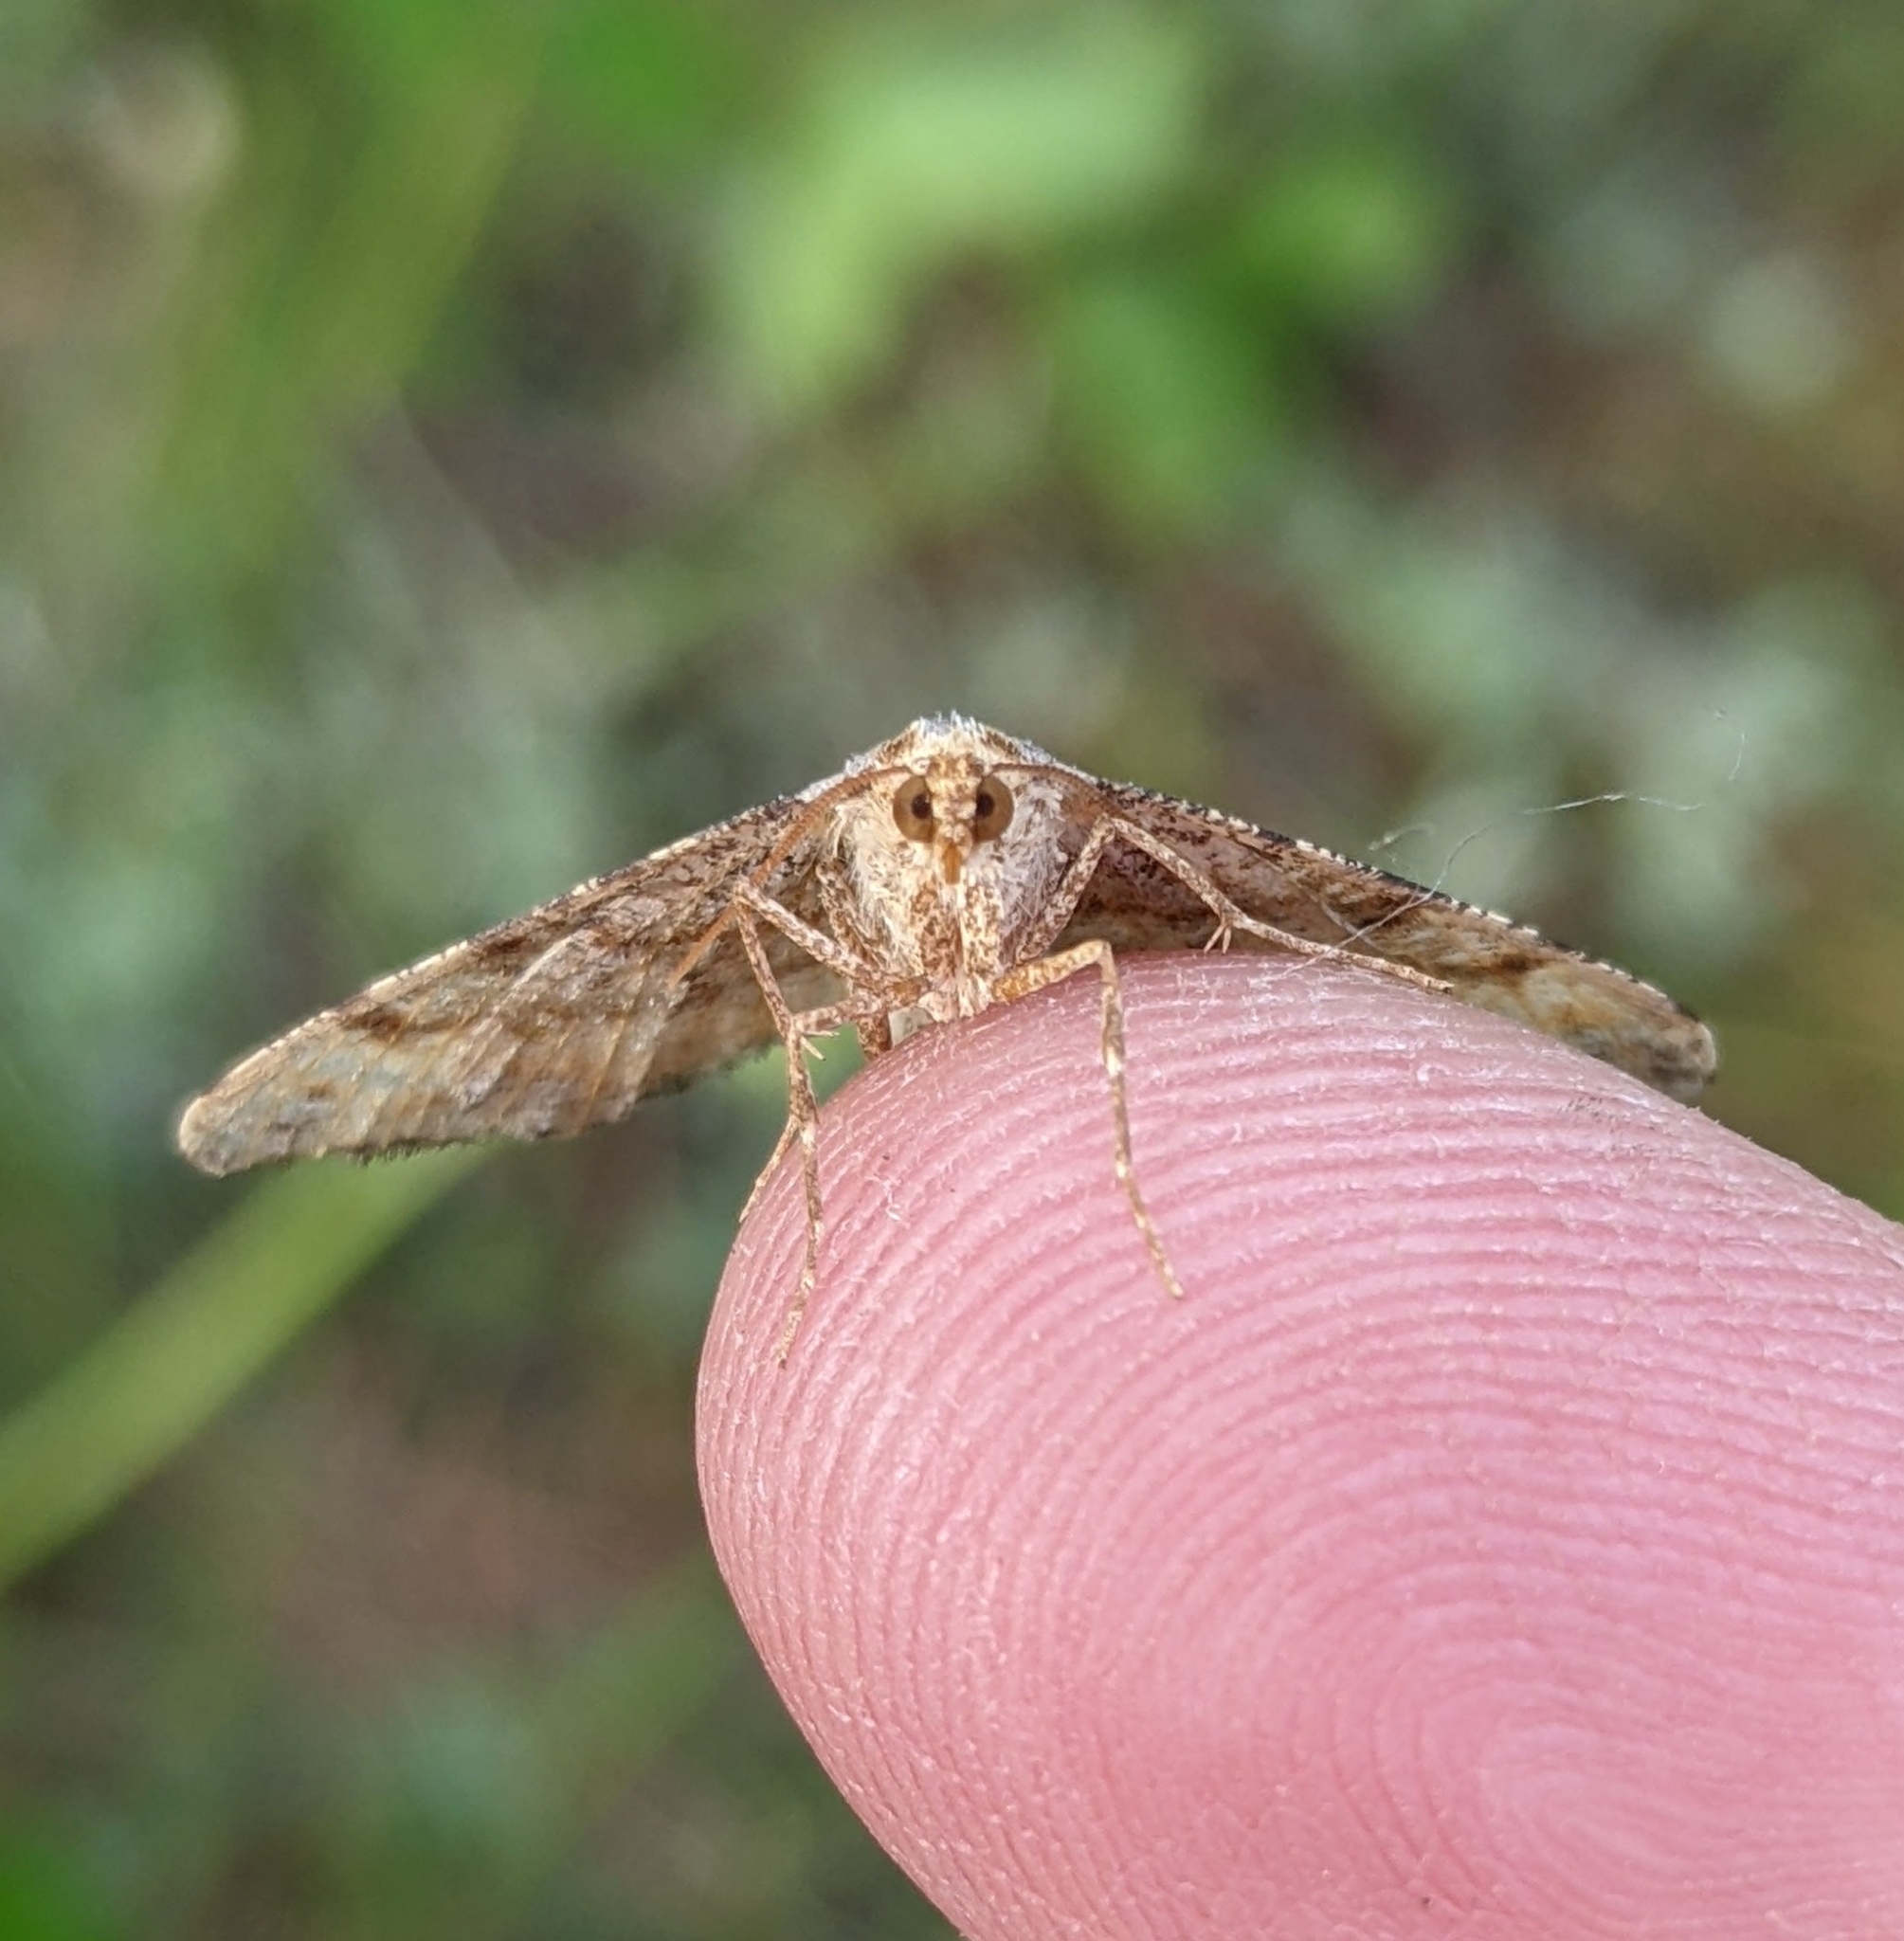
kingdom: Animalia
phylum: Arthropoda
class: Insecta
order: Lepidoptera
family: Geometridae
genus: Macaria
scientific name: Macaria adonis
